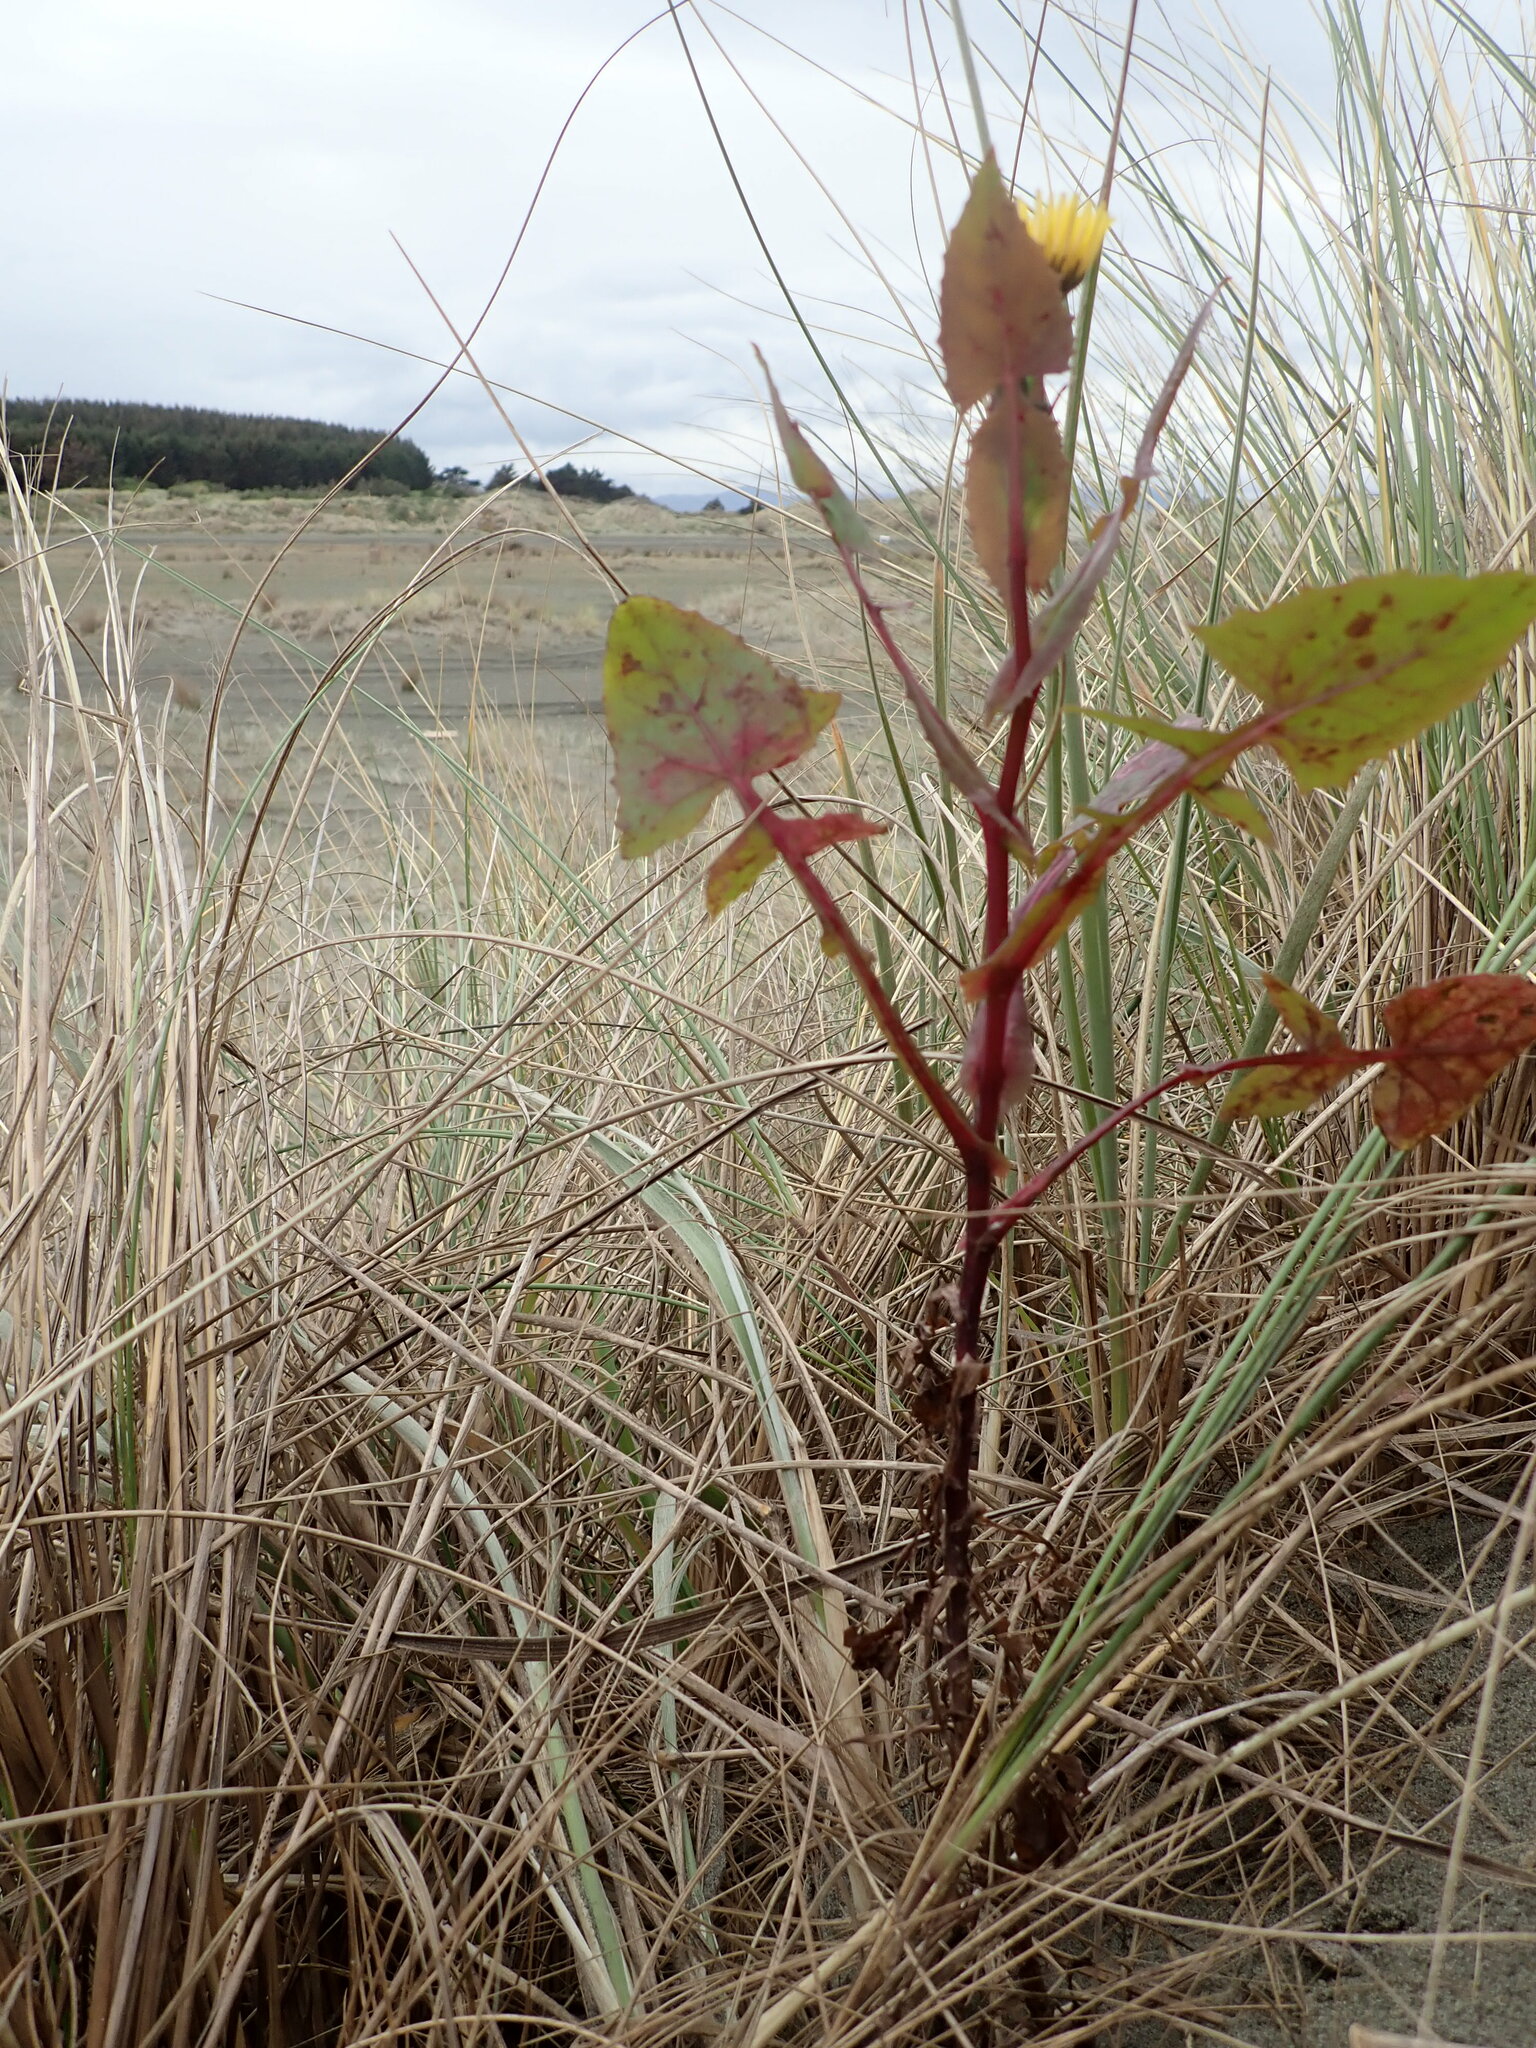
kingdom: Plantae
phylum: Tracheophyta
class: Magnoliopsida
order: Asterales
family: Asteraceae
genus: Sonchus
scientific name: Sonchus oleraceus
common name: Common sowthistle
